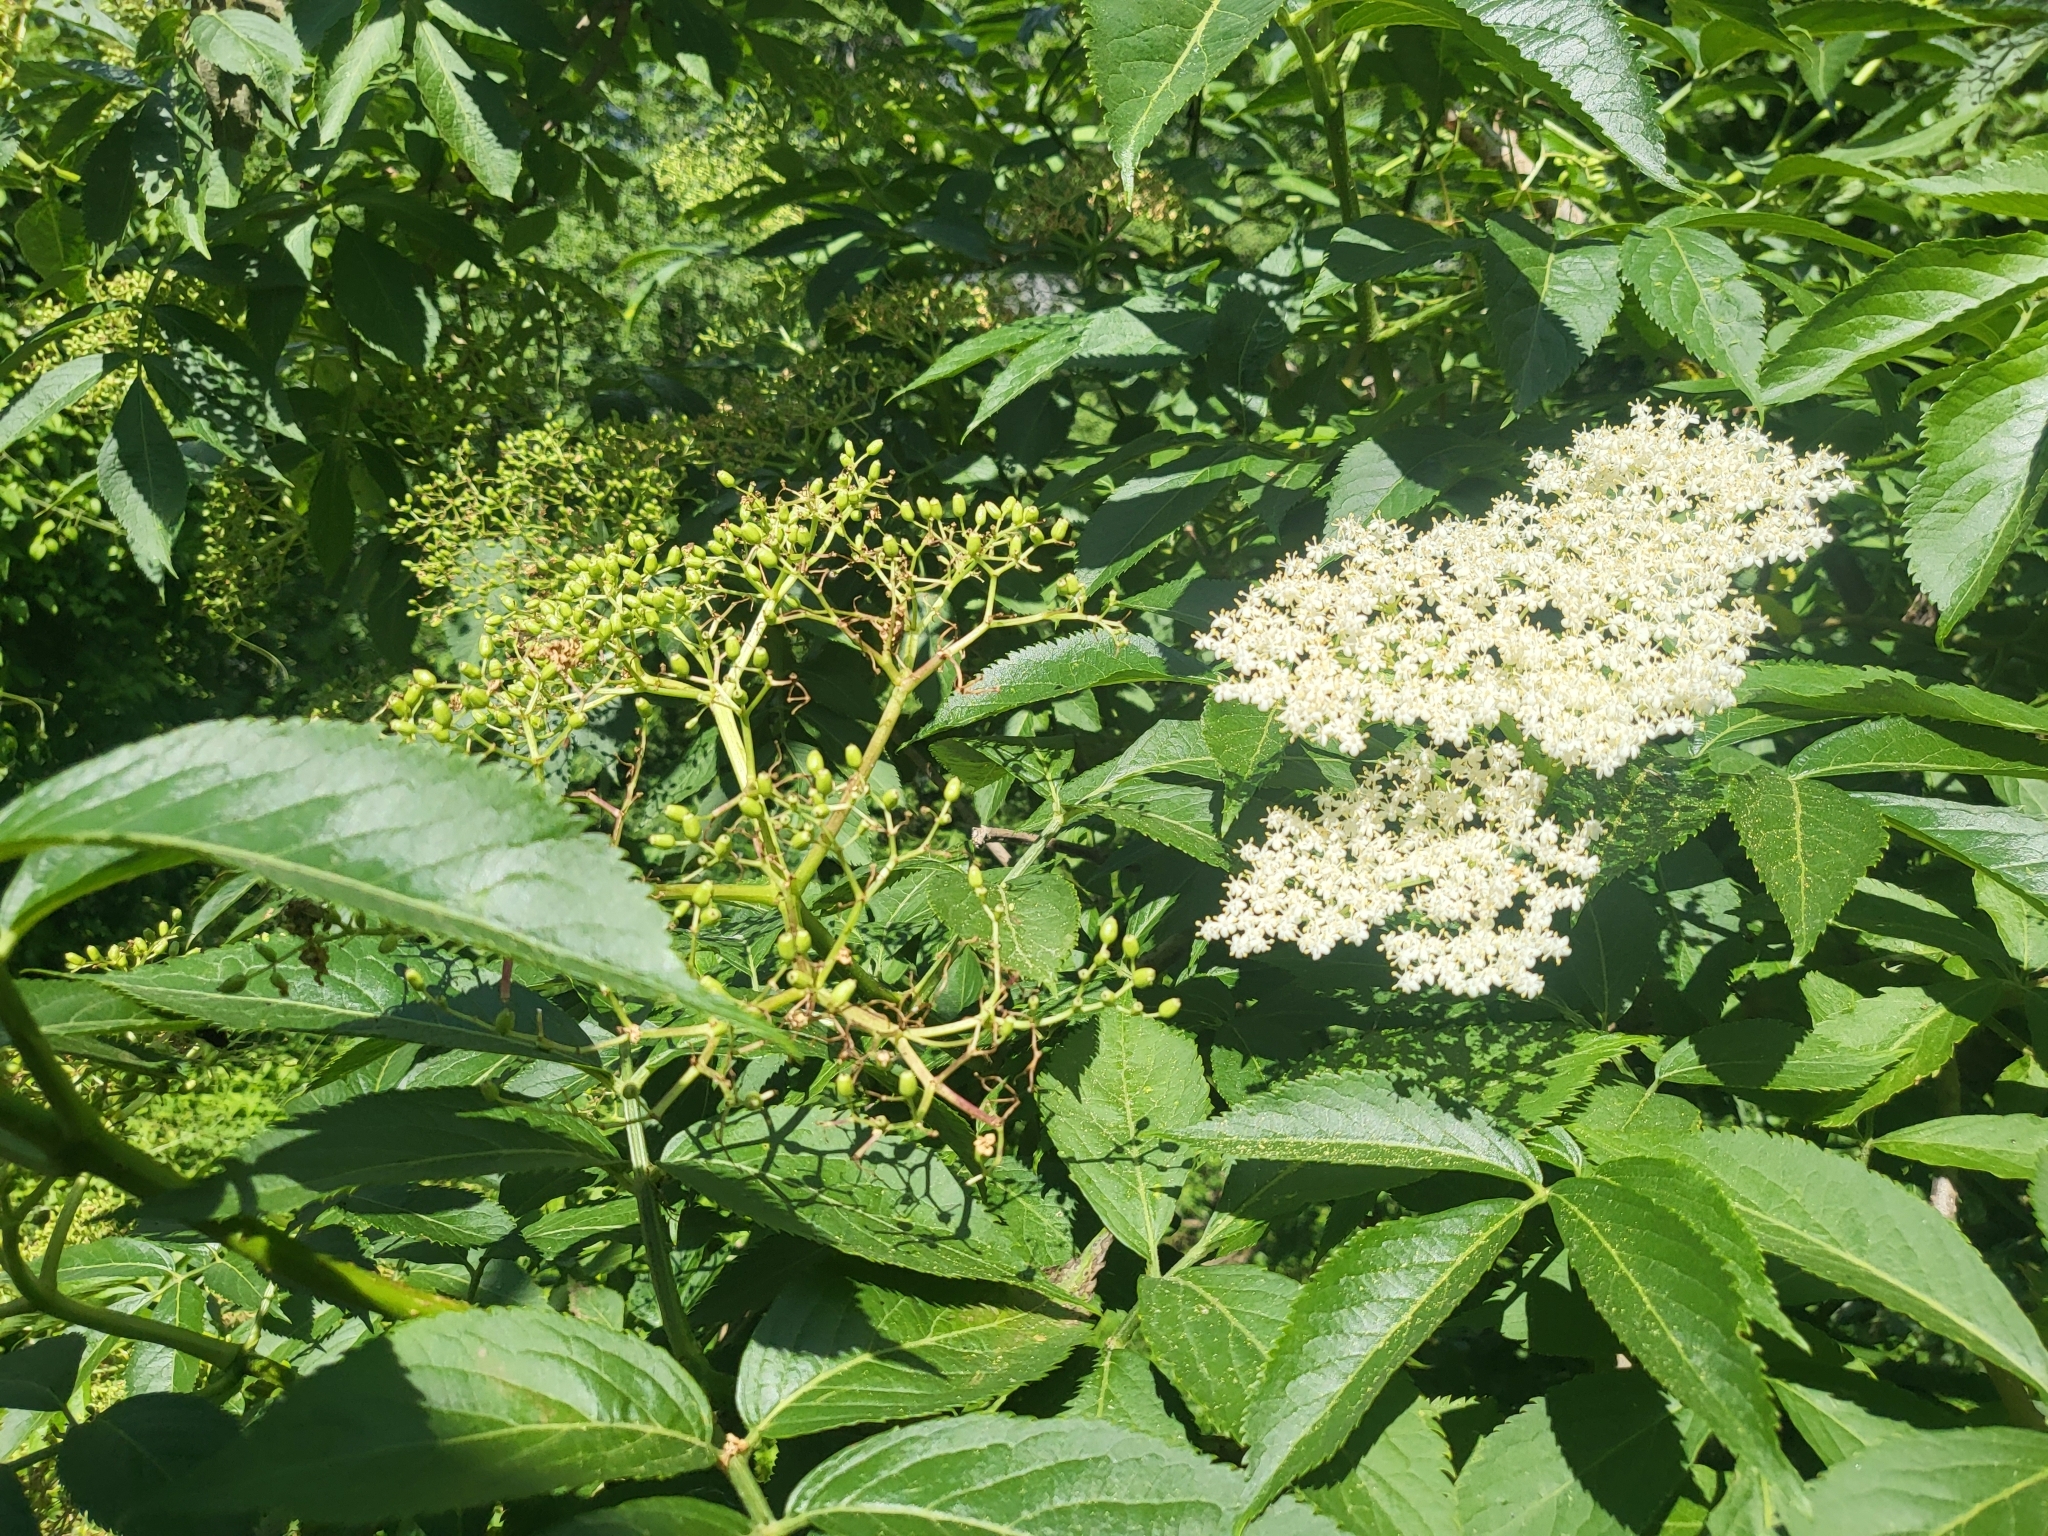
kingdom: Plantae
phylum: Tracheophyta
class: Magnoliopsida
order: Dipsacales
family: Viburnaceae
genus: Sambucus
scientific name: Sambucus nigra
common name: Elder
